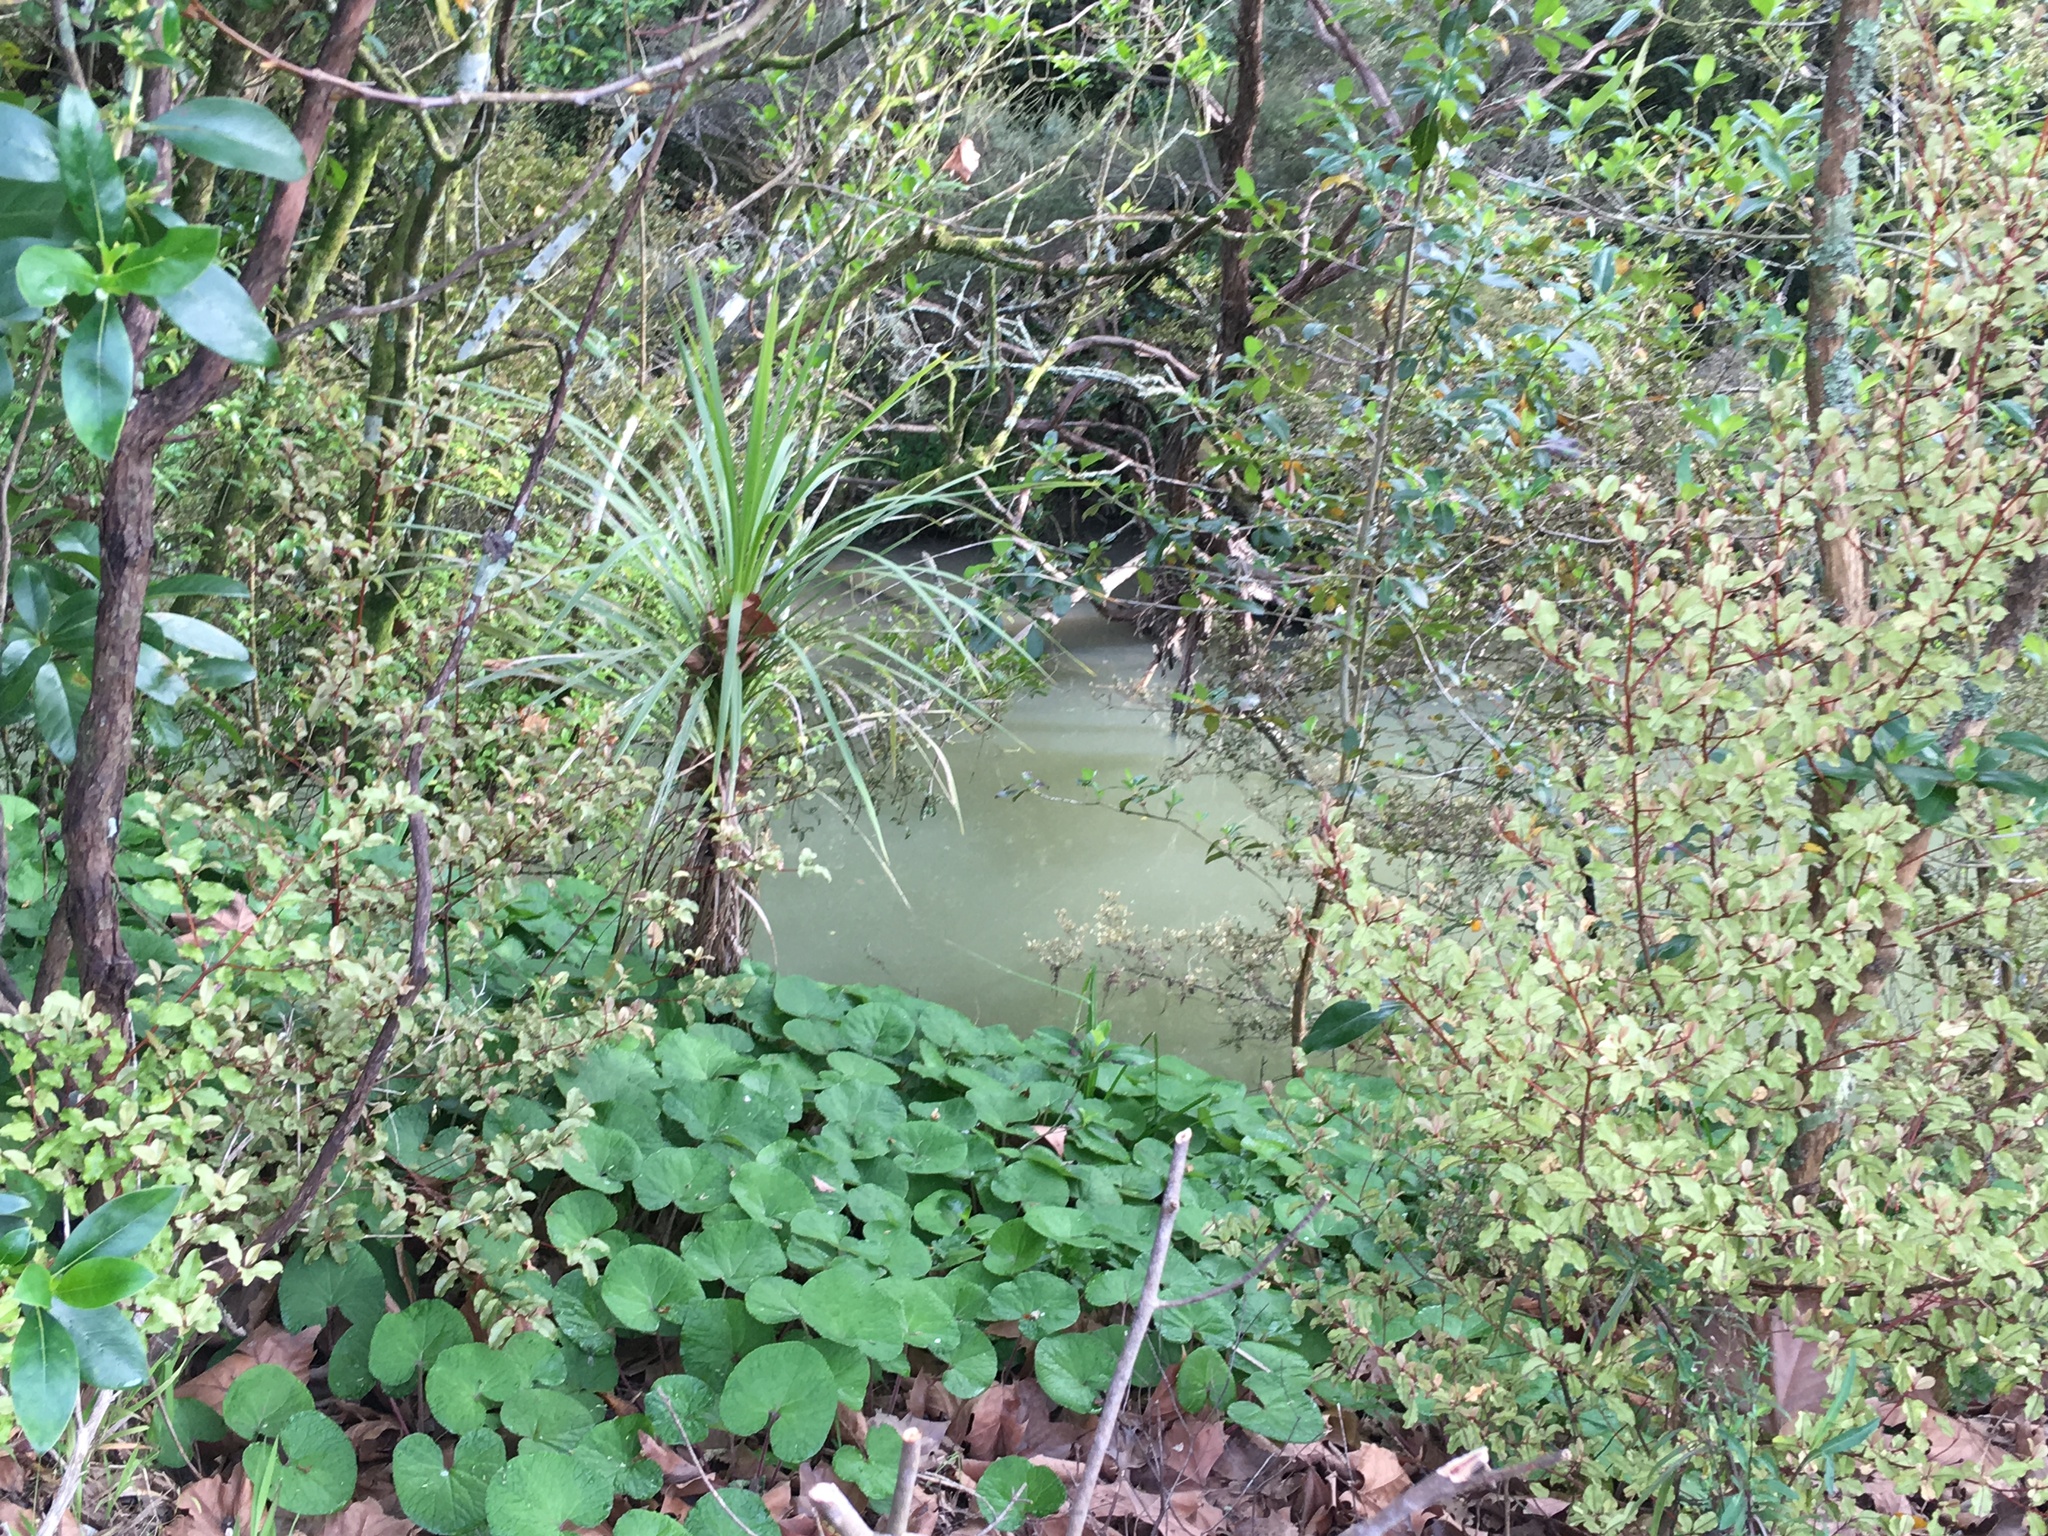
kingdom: Plantae
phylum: Tracheophyta
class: Liliopsida
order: Asparagales
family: Asparagaceae
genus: Cordyline
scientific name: Cordyline australis
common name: Cabbage-palm
